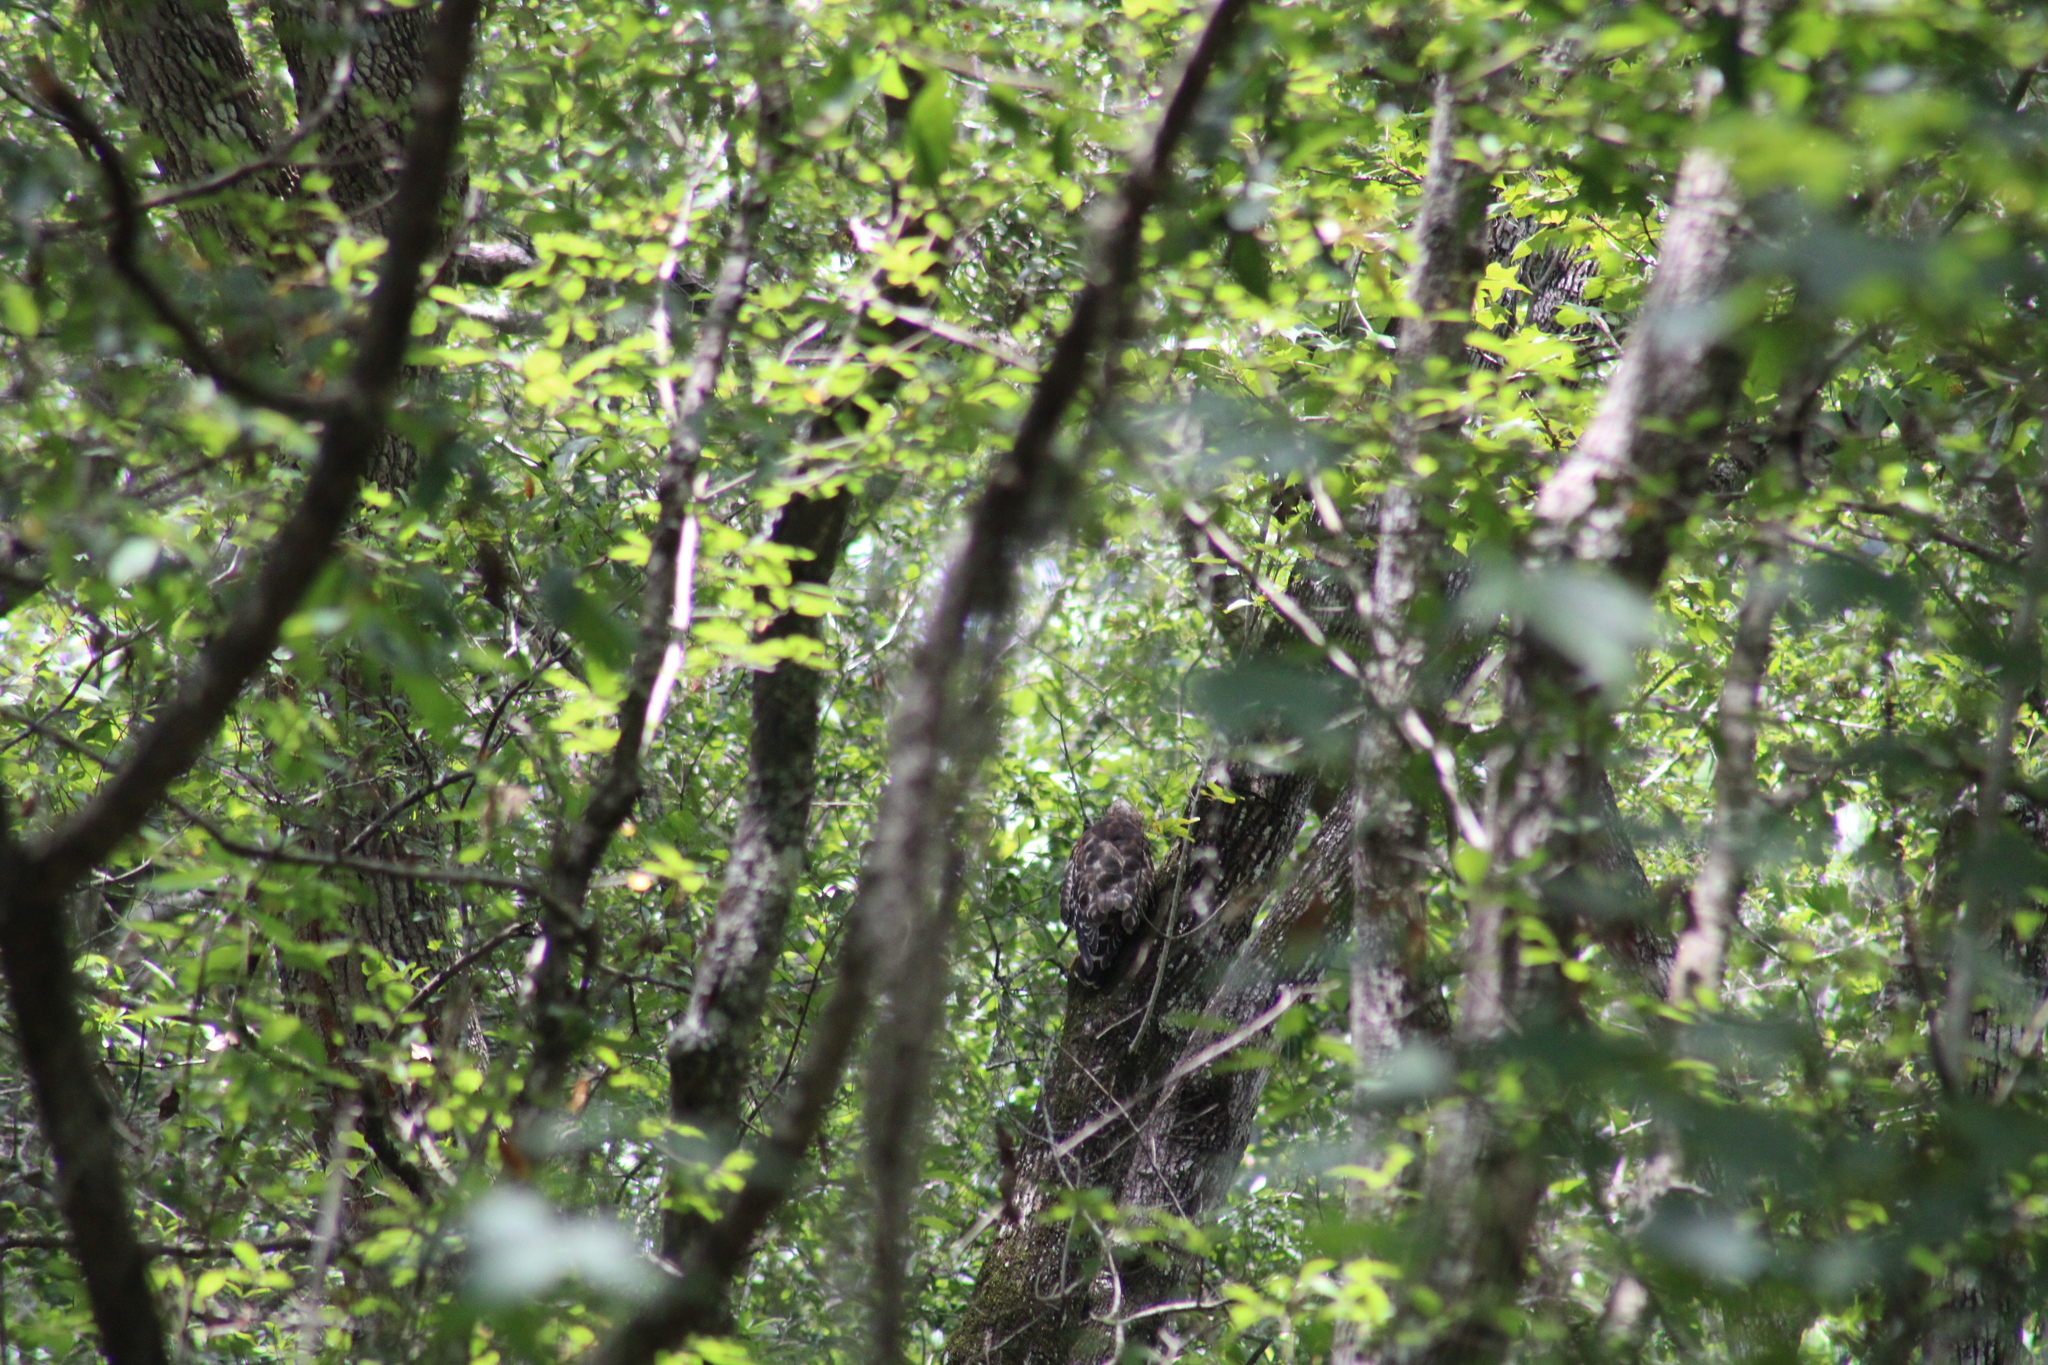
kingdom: Animalia
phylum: Chordata
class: Aves
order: Accipitriformes
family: Accipitridae
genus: Buteo
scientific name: Buteo lineatus
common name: Red-shouldered hawk
